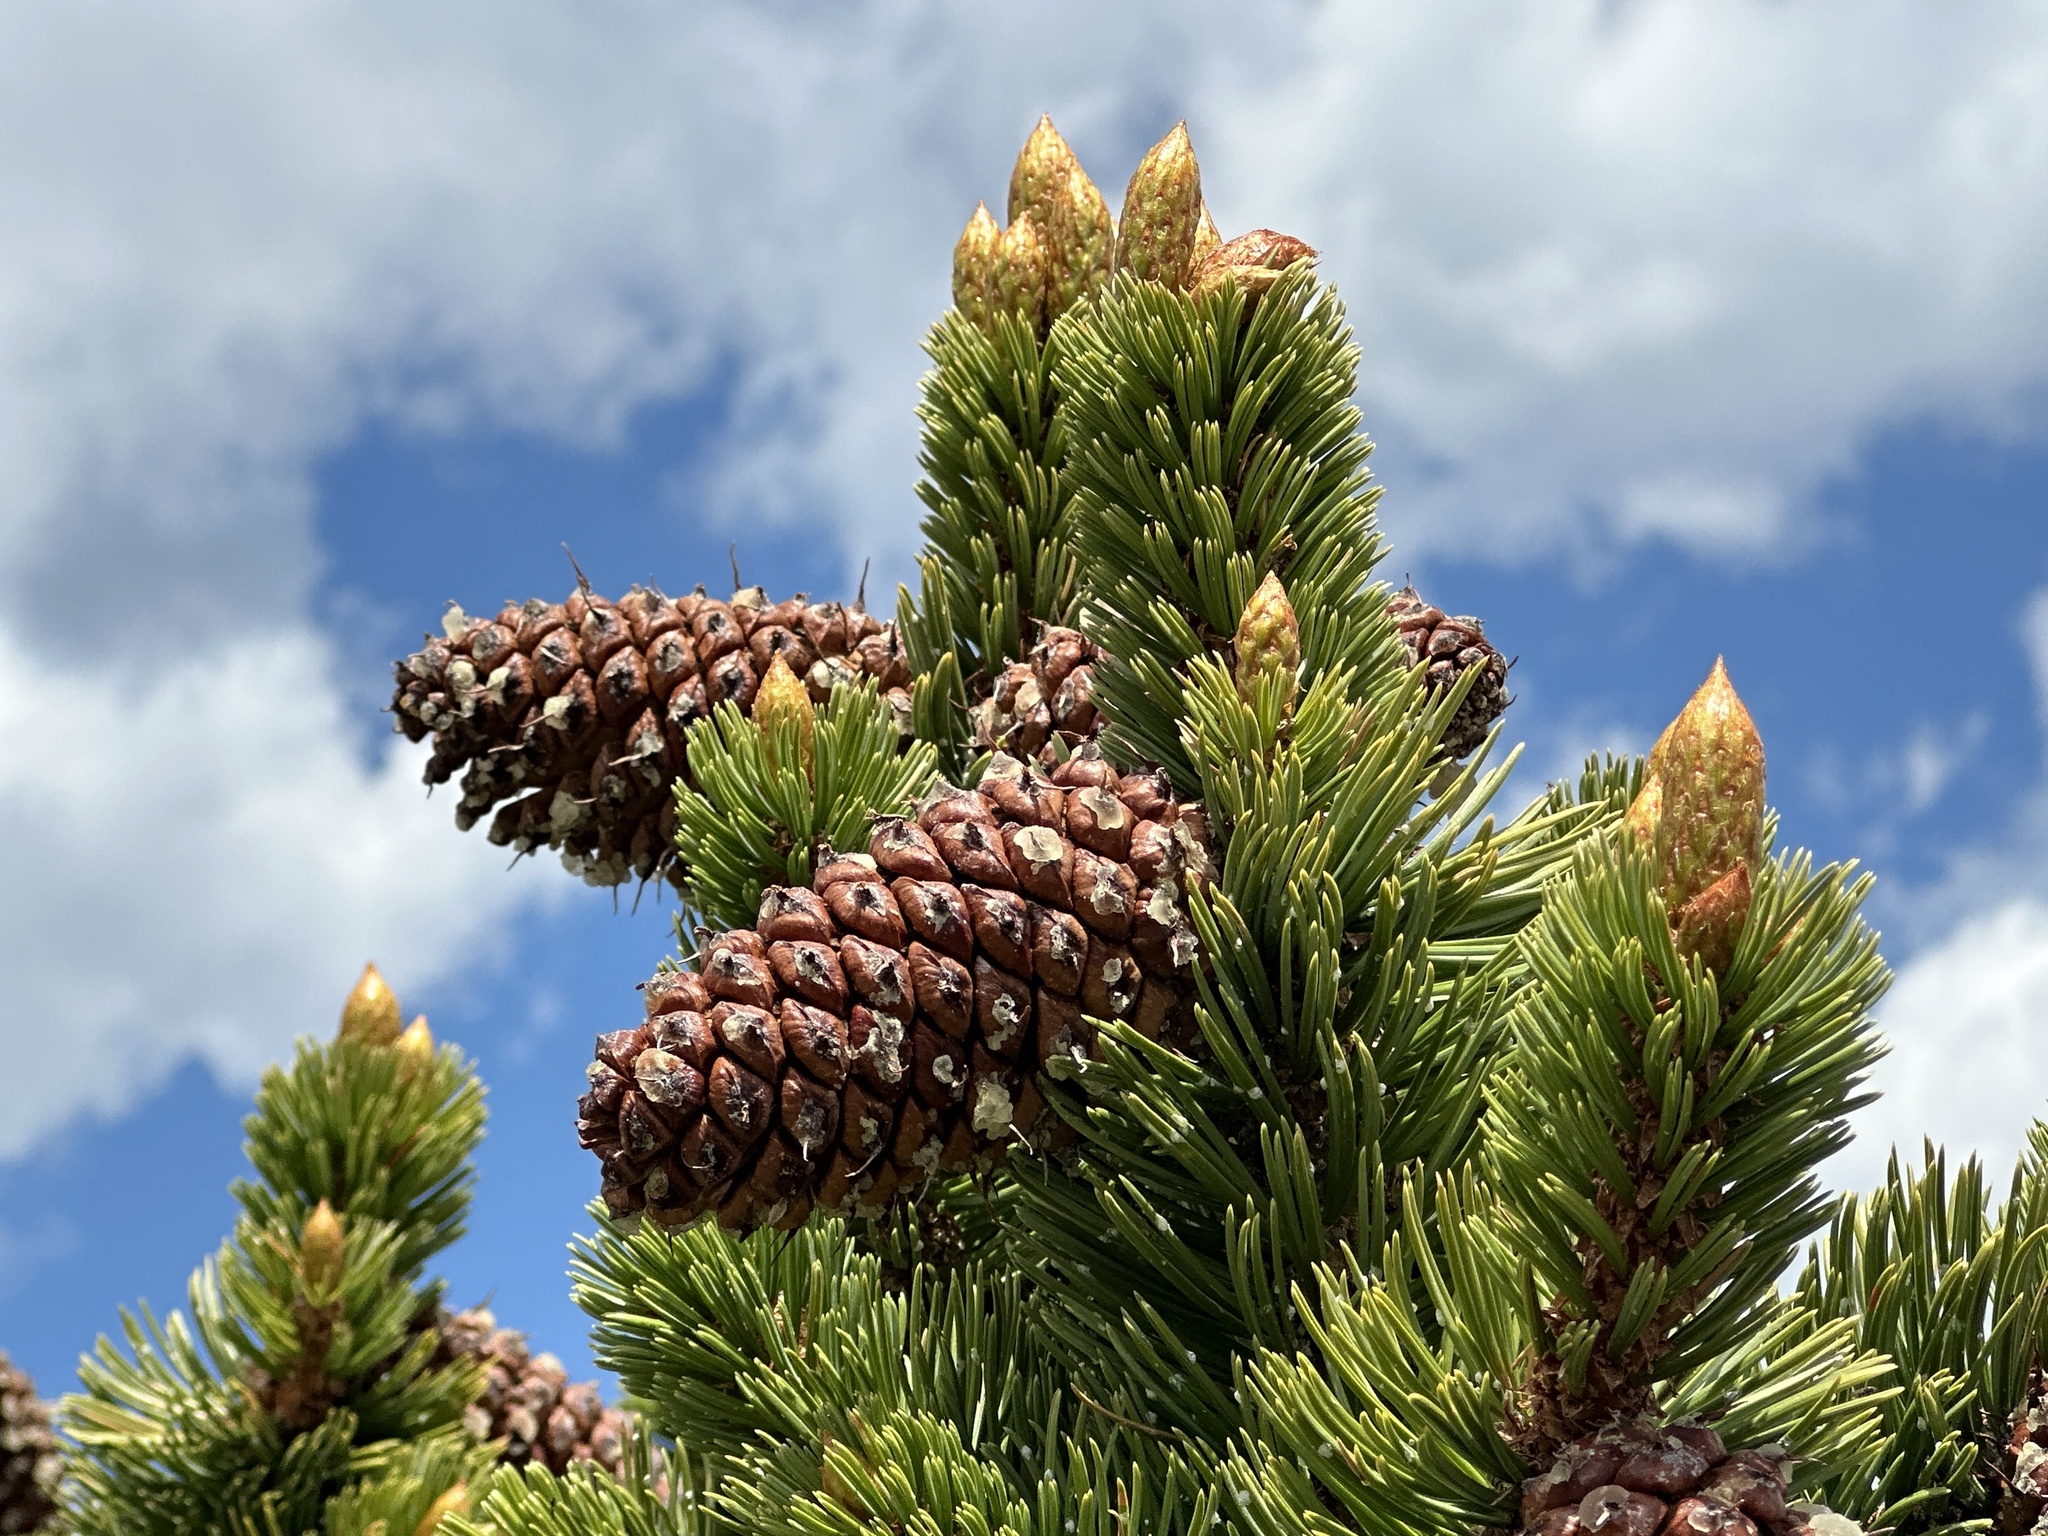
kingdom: Plantae
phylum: Tracheophyta
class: Pinopsida
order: Pinales
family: Pinaceae
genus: Pinus
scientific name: Pinus aristata
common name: Colorado bristlecone pine
